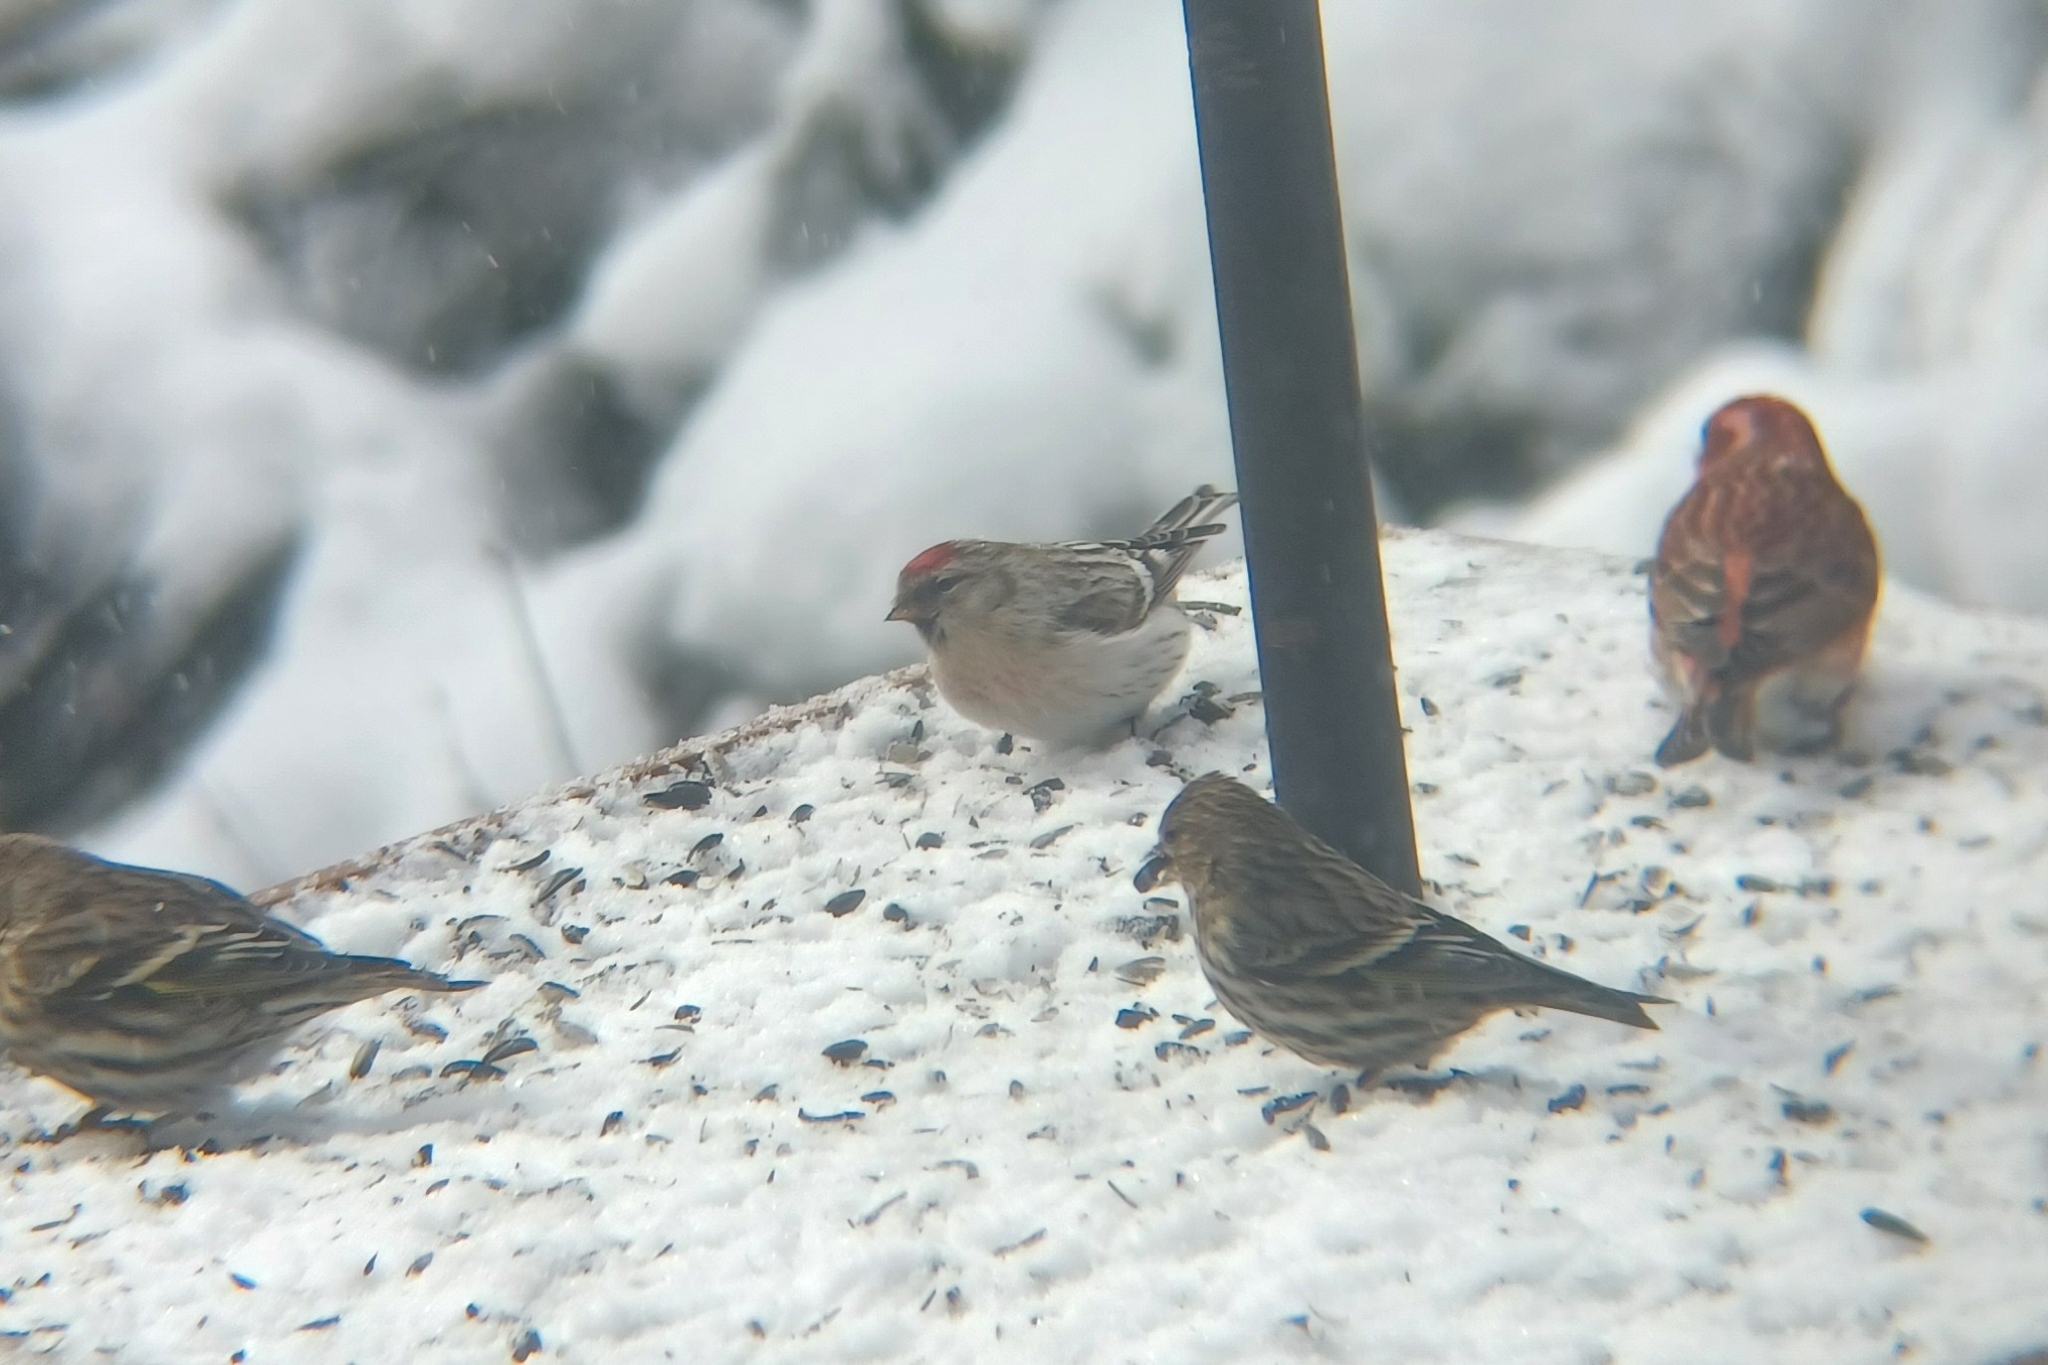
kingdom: Animalia
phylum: Chordata
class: Aves
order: Passeriformes
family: Fringillidae
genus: Acanthis
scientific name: Acanthis hornemanni
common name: Arctic redpoll
